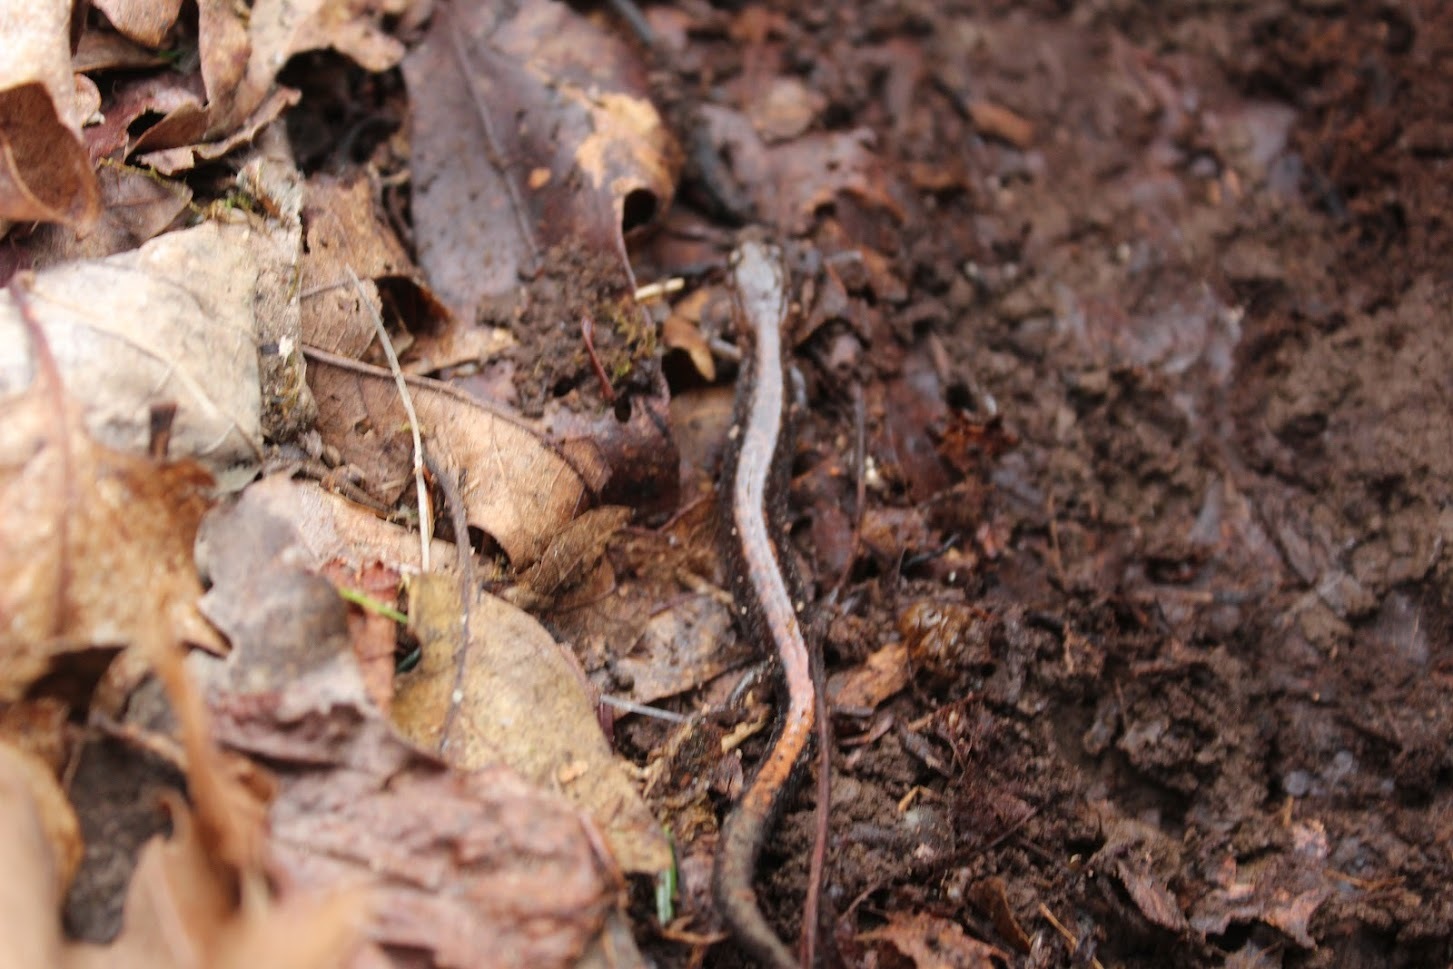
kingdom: Animalia
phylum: Chordata
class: Amphibia
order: Caudata
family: Plethodontidae
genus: Plethodon
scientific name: Plethodon cinereus
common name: Redback salamander
